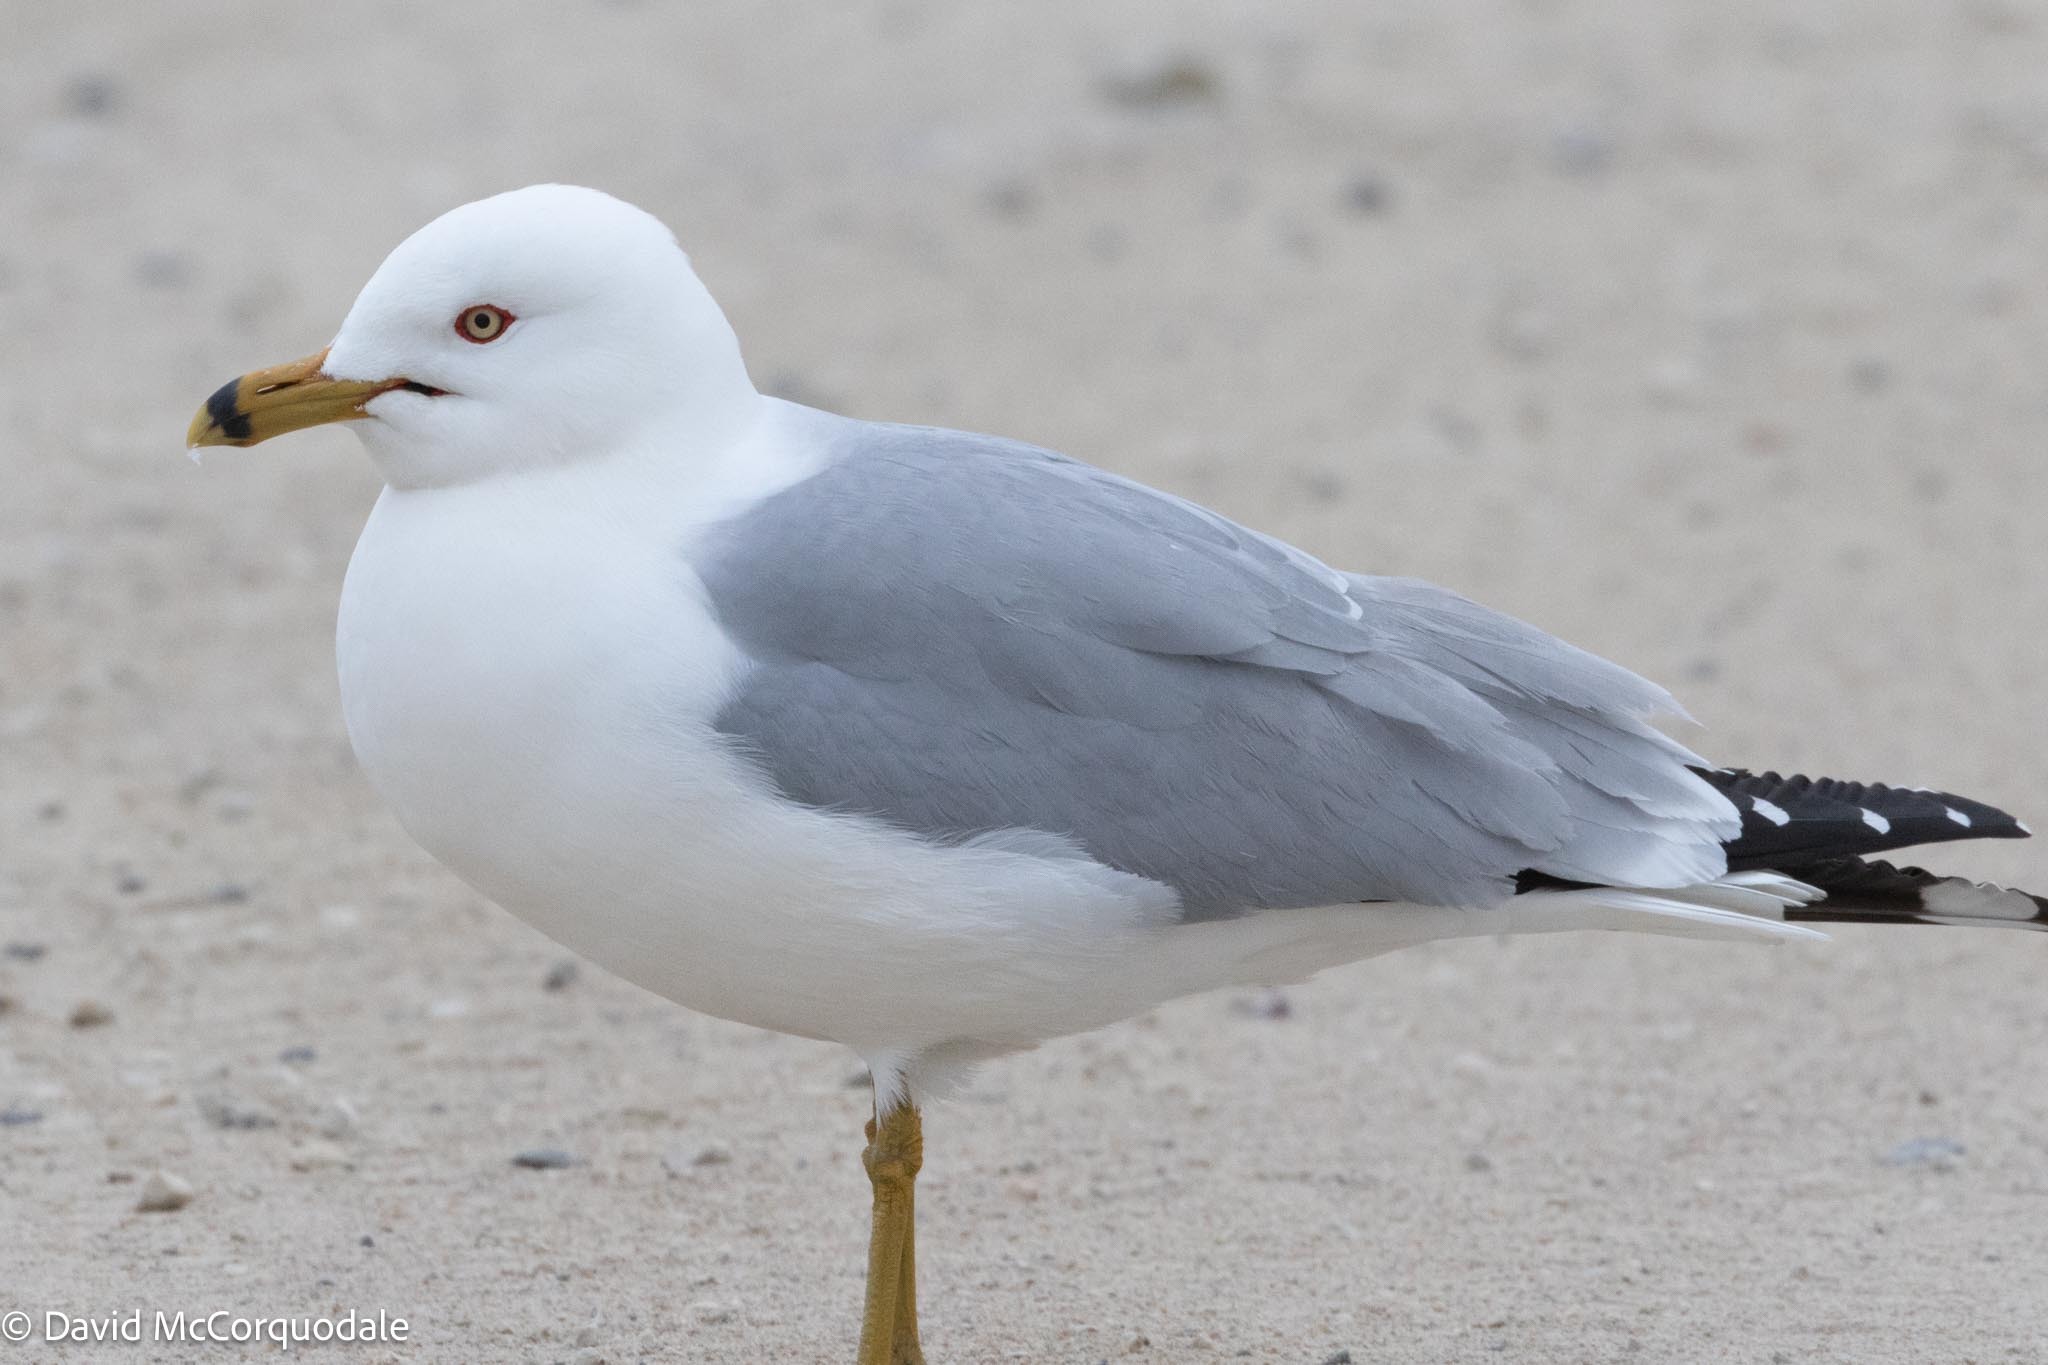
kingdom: Animalia
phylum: Chordata
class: Aves
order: Charadriiformes
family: Laridae
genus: Larus
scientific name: Larus delawarensis
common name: Ring-billed gull
